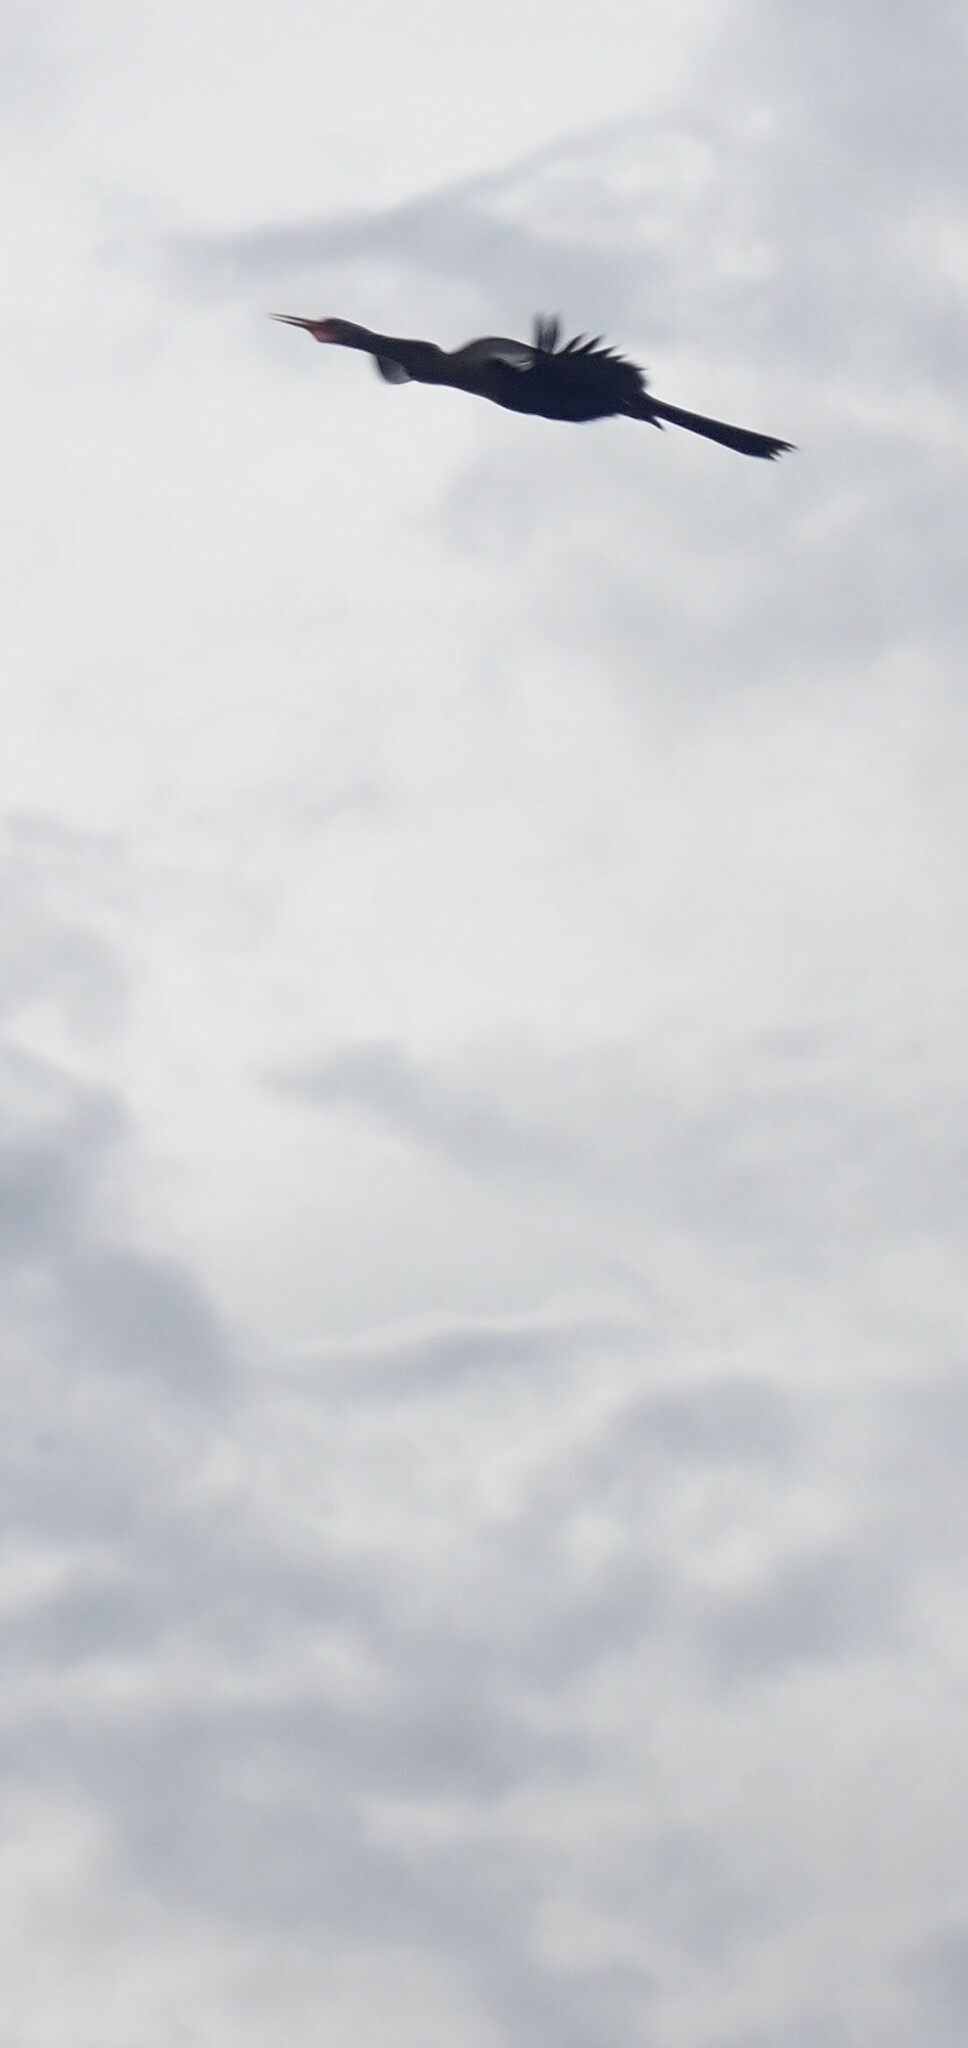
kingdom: Animalia
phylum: Chordata
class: Aves
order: Suliformes
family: Anhingidae
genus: Anhinga
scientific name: Anhinga anhinga
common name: Anhinga
